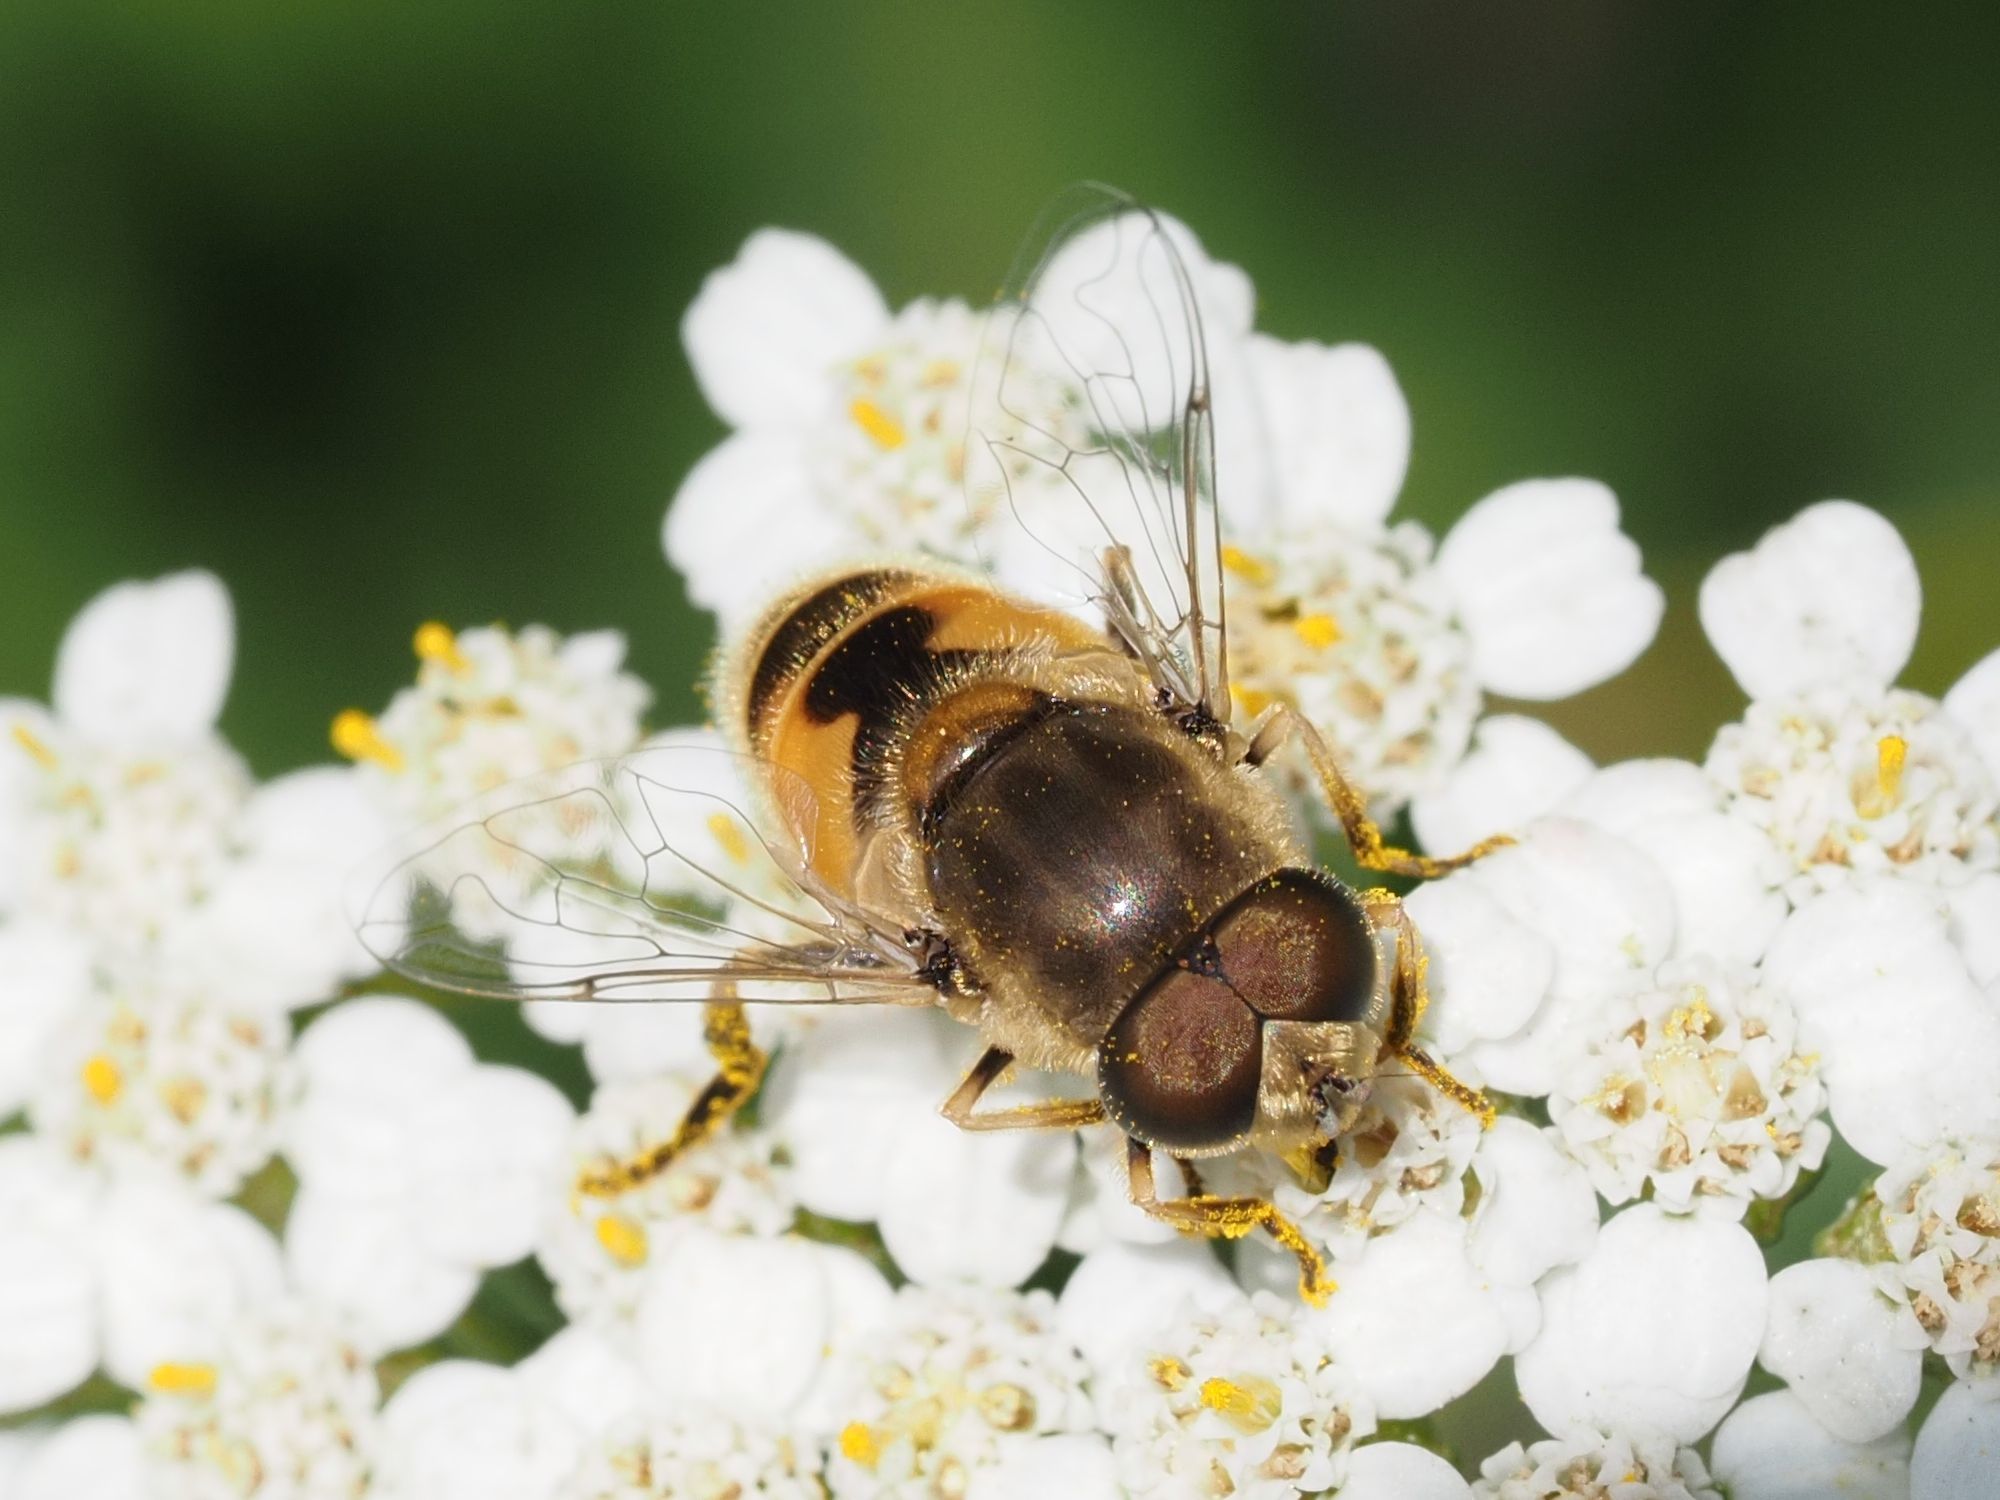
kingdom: Animalia
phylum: Arthropoda
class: Insecta
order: Diptera
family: Syrphidae
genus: Eristalis
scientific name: Eristalis arbustorum
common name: Hover fly
